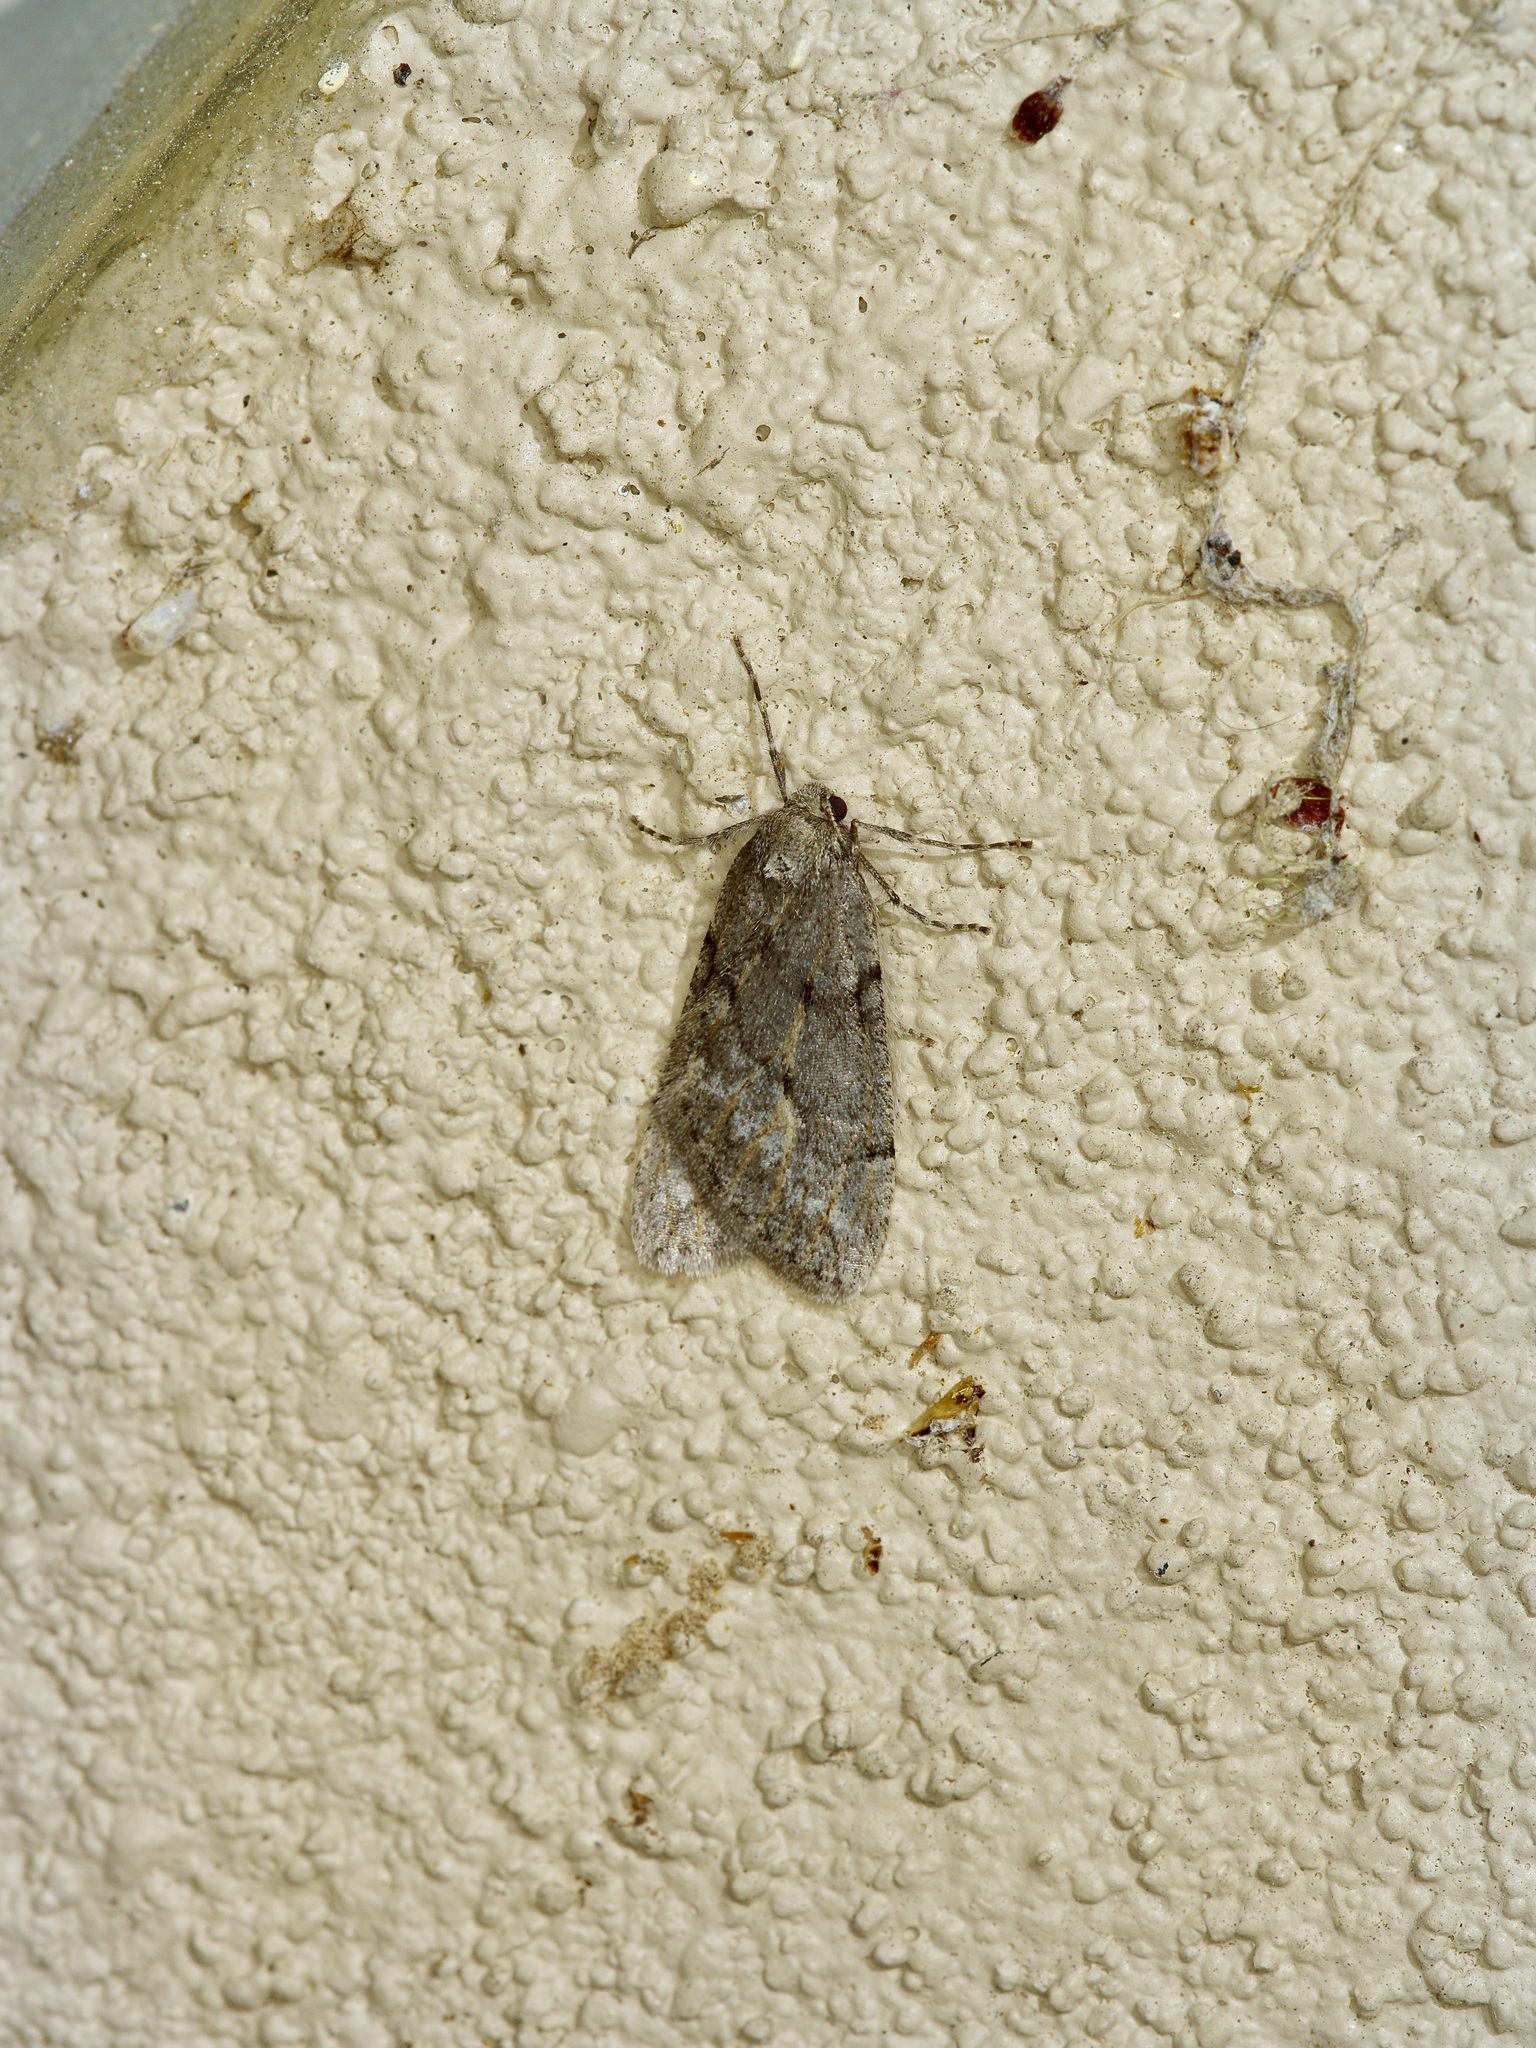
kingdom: Animalia
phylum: Arthropoda
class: Insecta
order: Lepidoptera
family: Geometridae
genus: Paleacrita
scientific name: Paleacrita vernata
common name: Spring cankerworm
